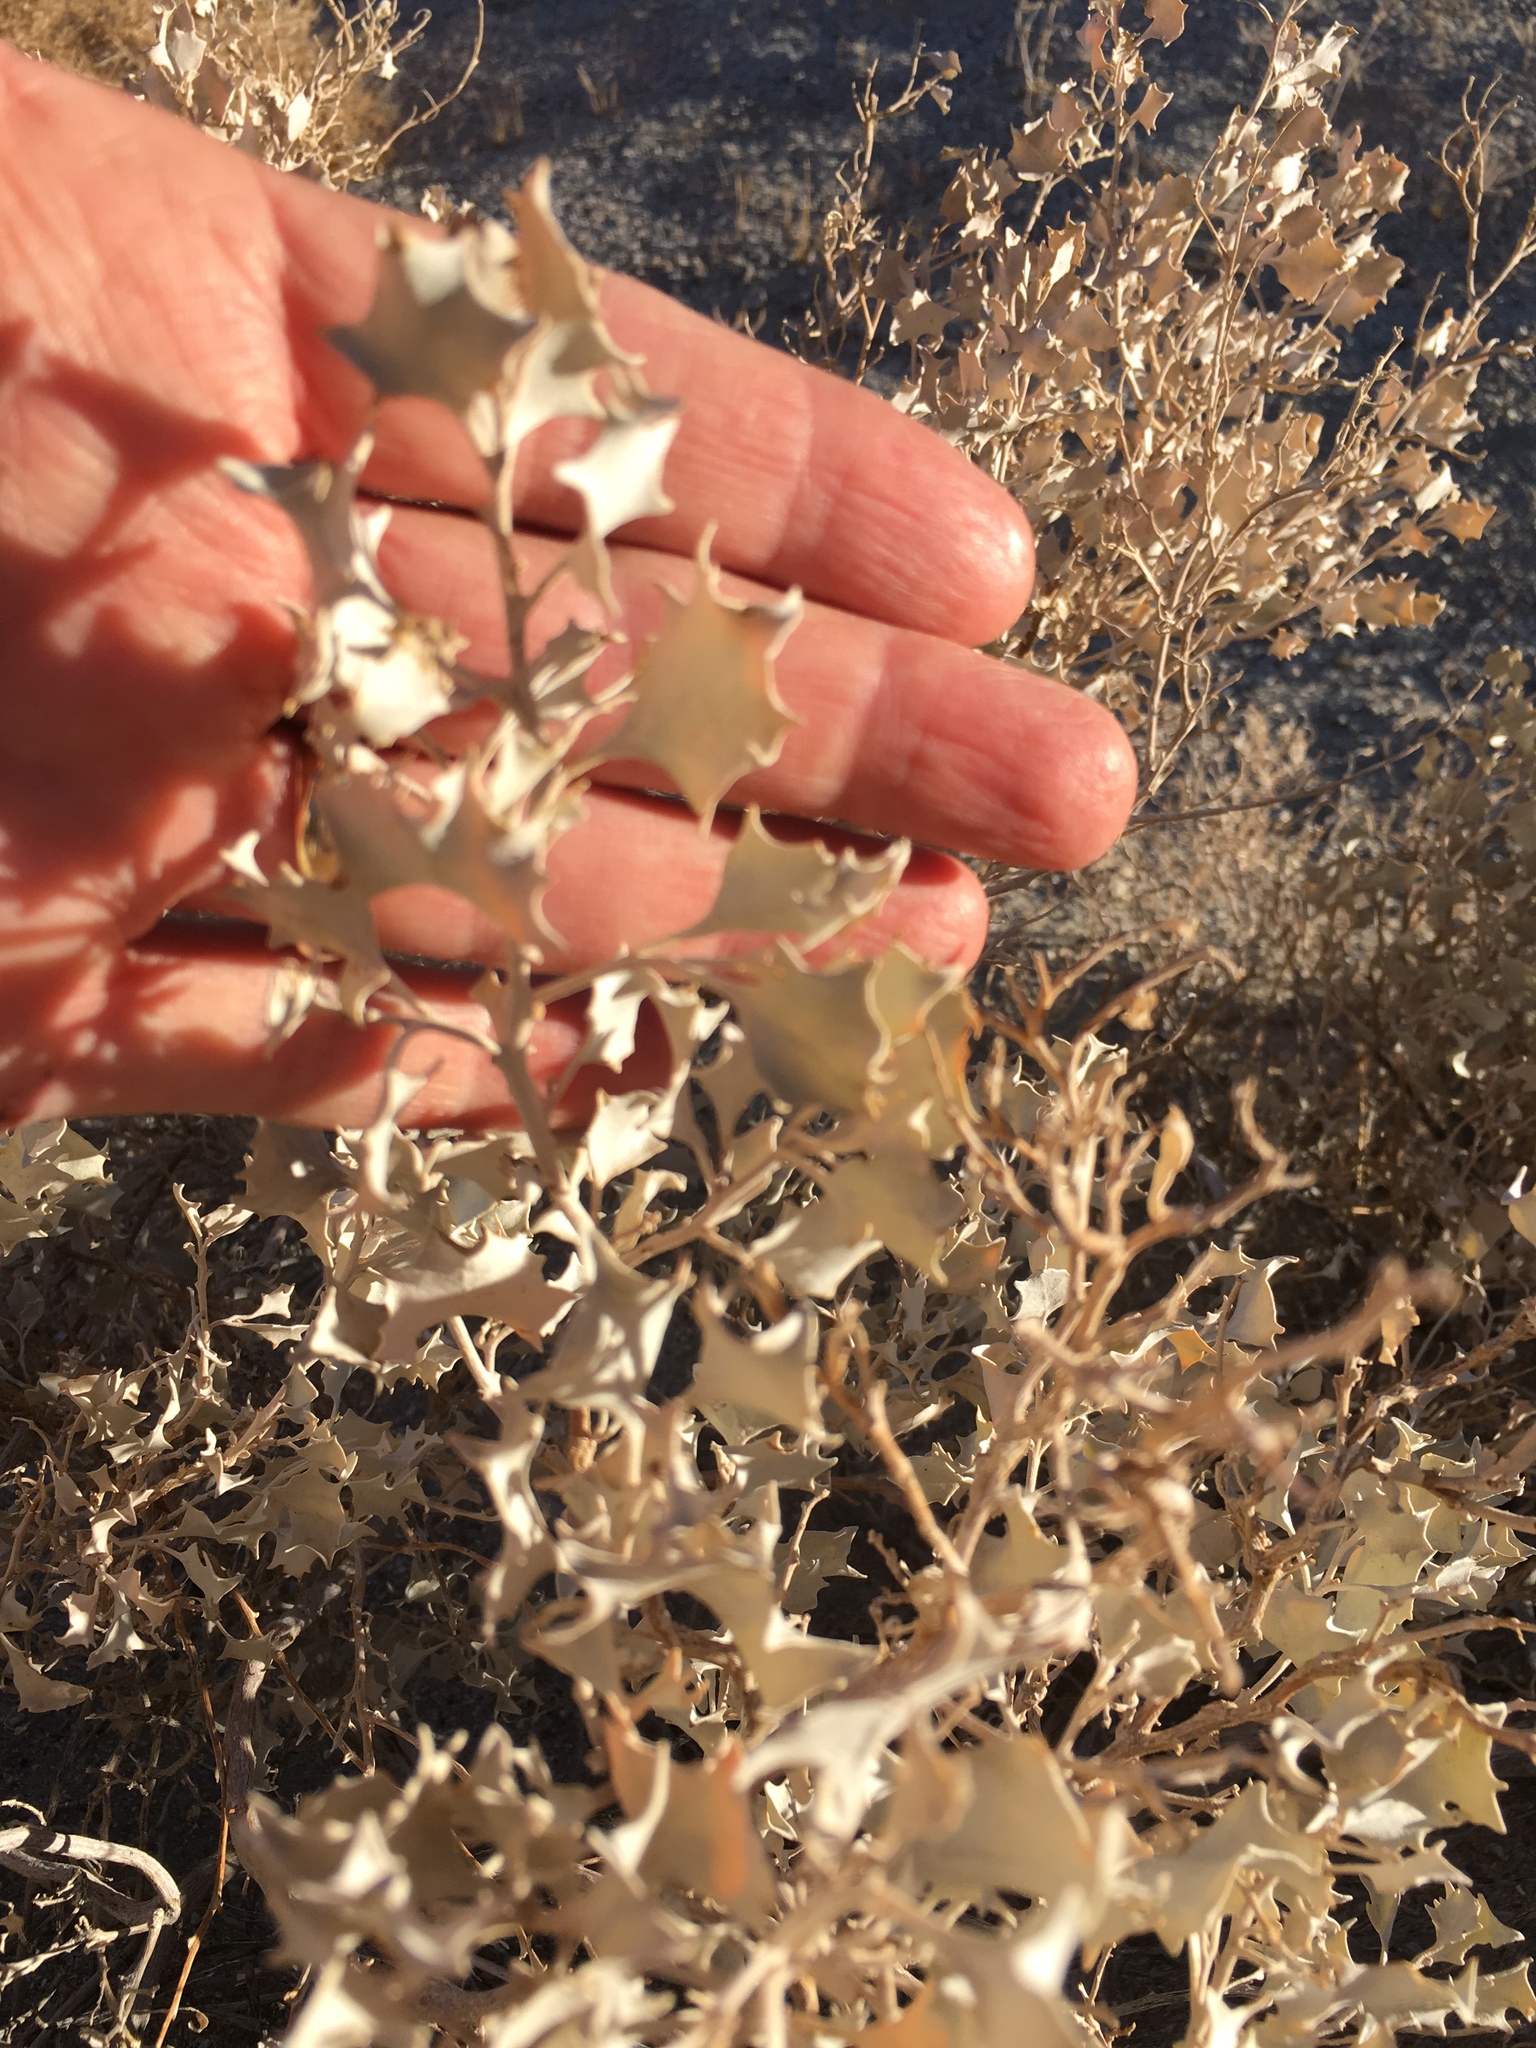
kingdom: Plantae
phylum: Tracheophyta
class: Magnoliopsida
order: Caryophyllales
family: Amaranthaceae
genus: Atriplex
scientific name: Atriplex hymenelytra
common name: Desert-holly
